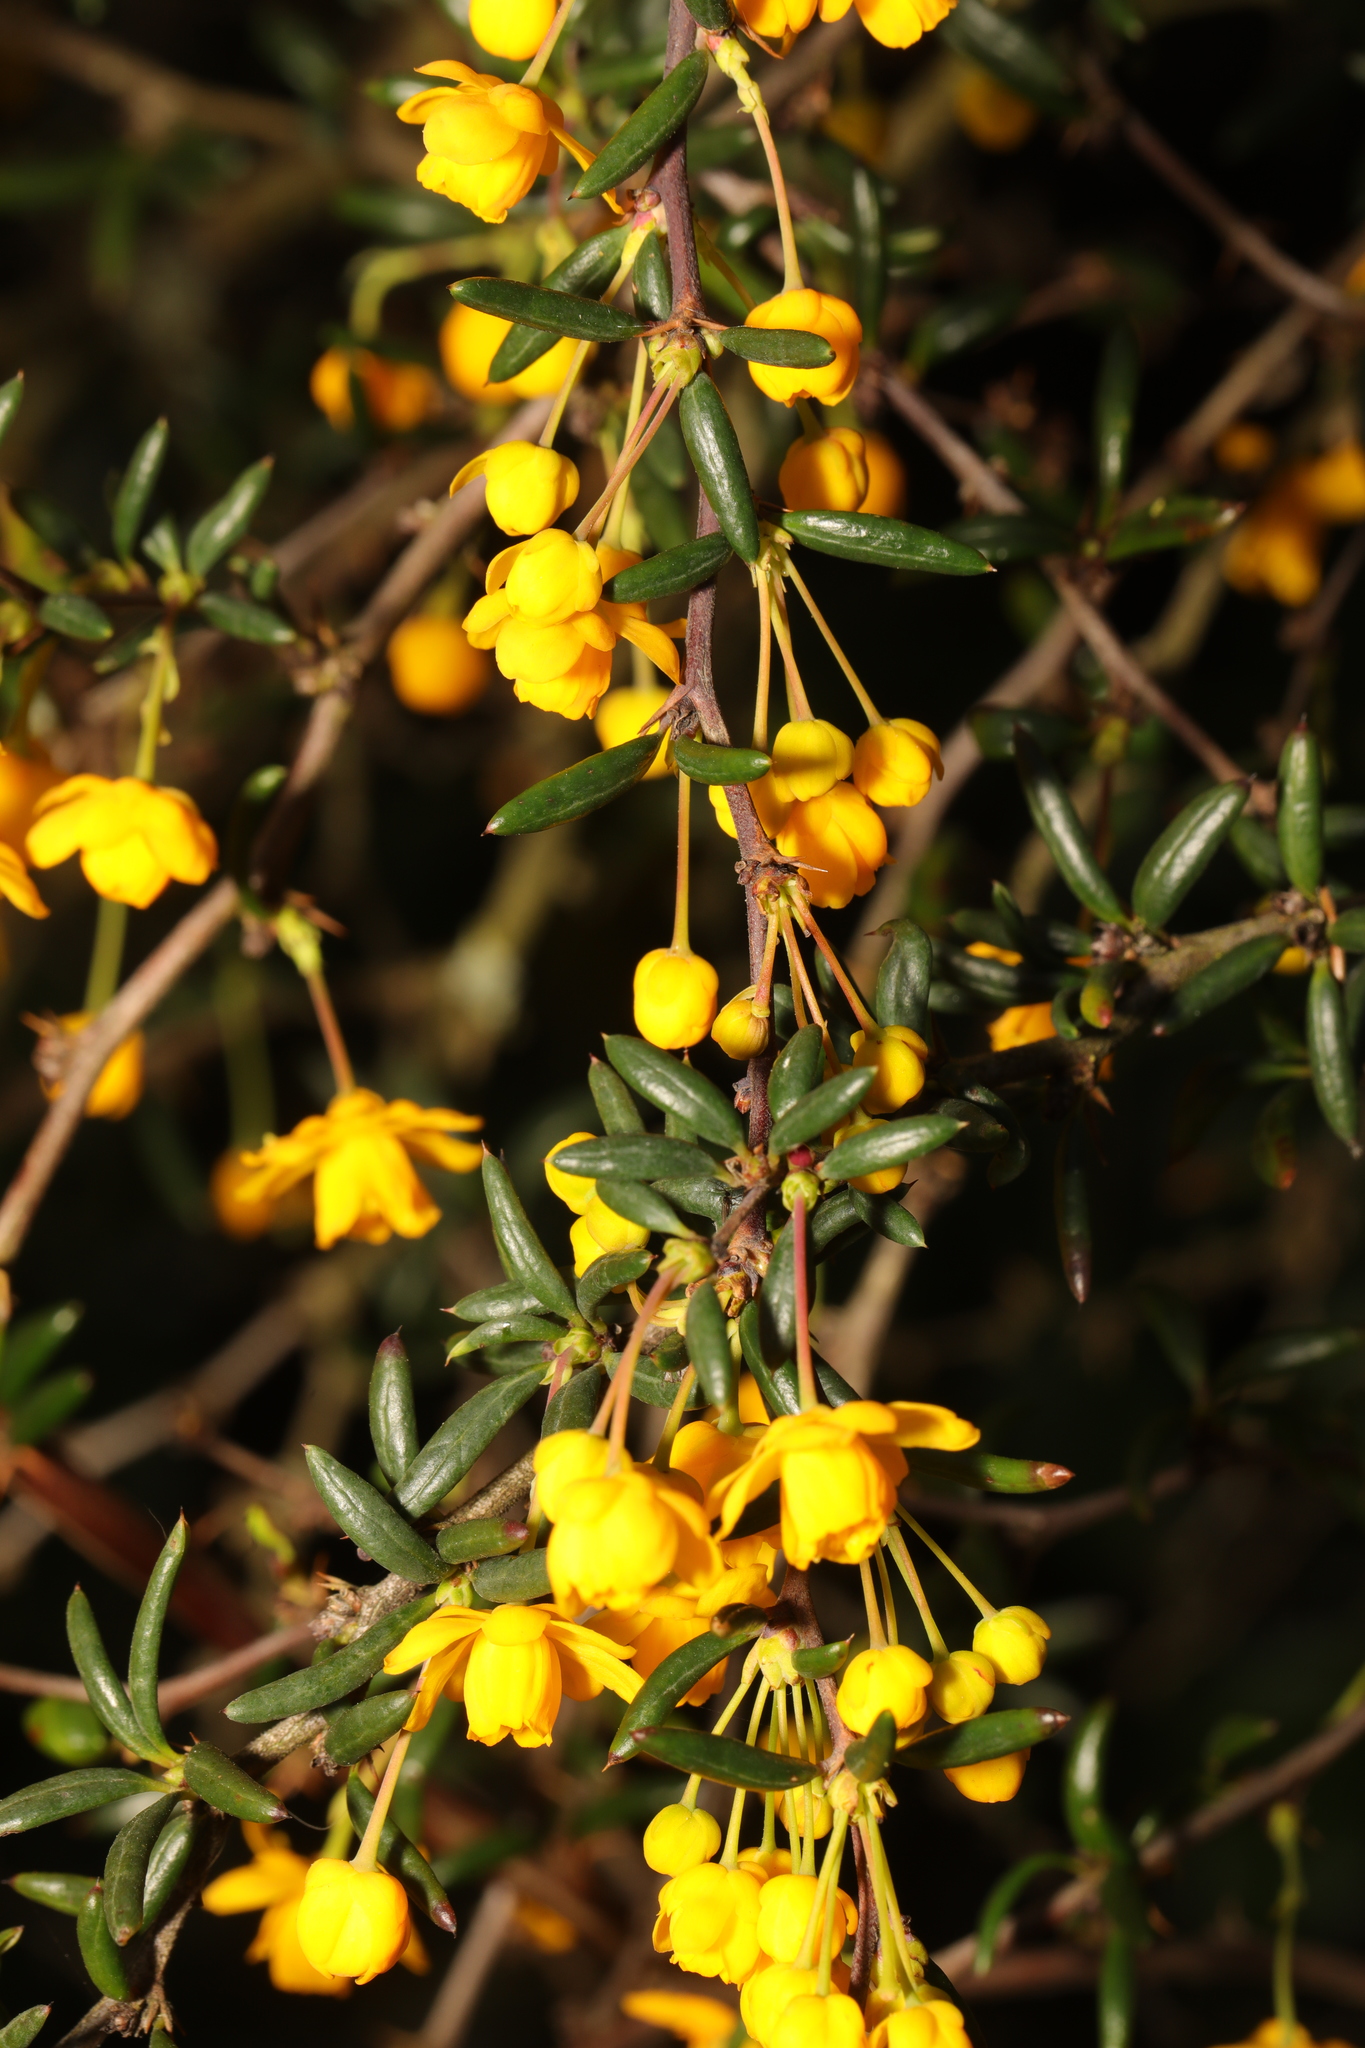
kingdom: Plantae
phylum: Tracheophyta
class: Magnoliopsida
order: Ranunculales
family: Berberidaceae
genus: Berberis
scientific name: Berberis stenophylla
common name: Hedge barberry
